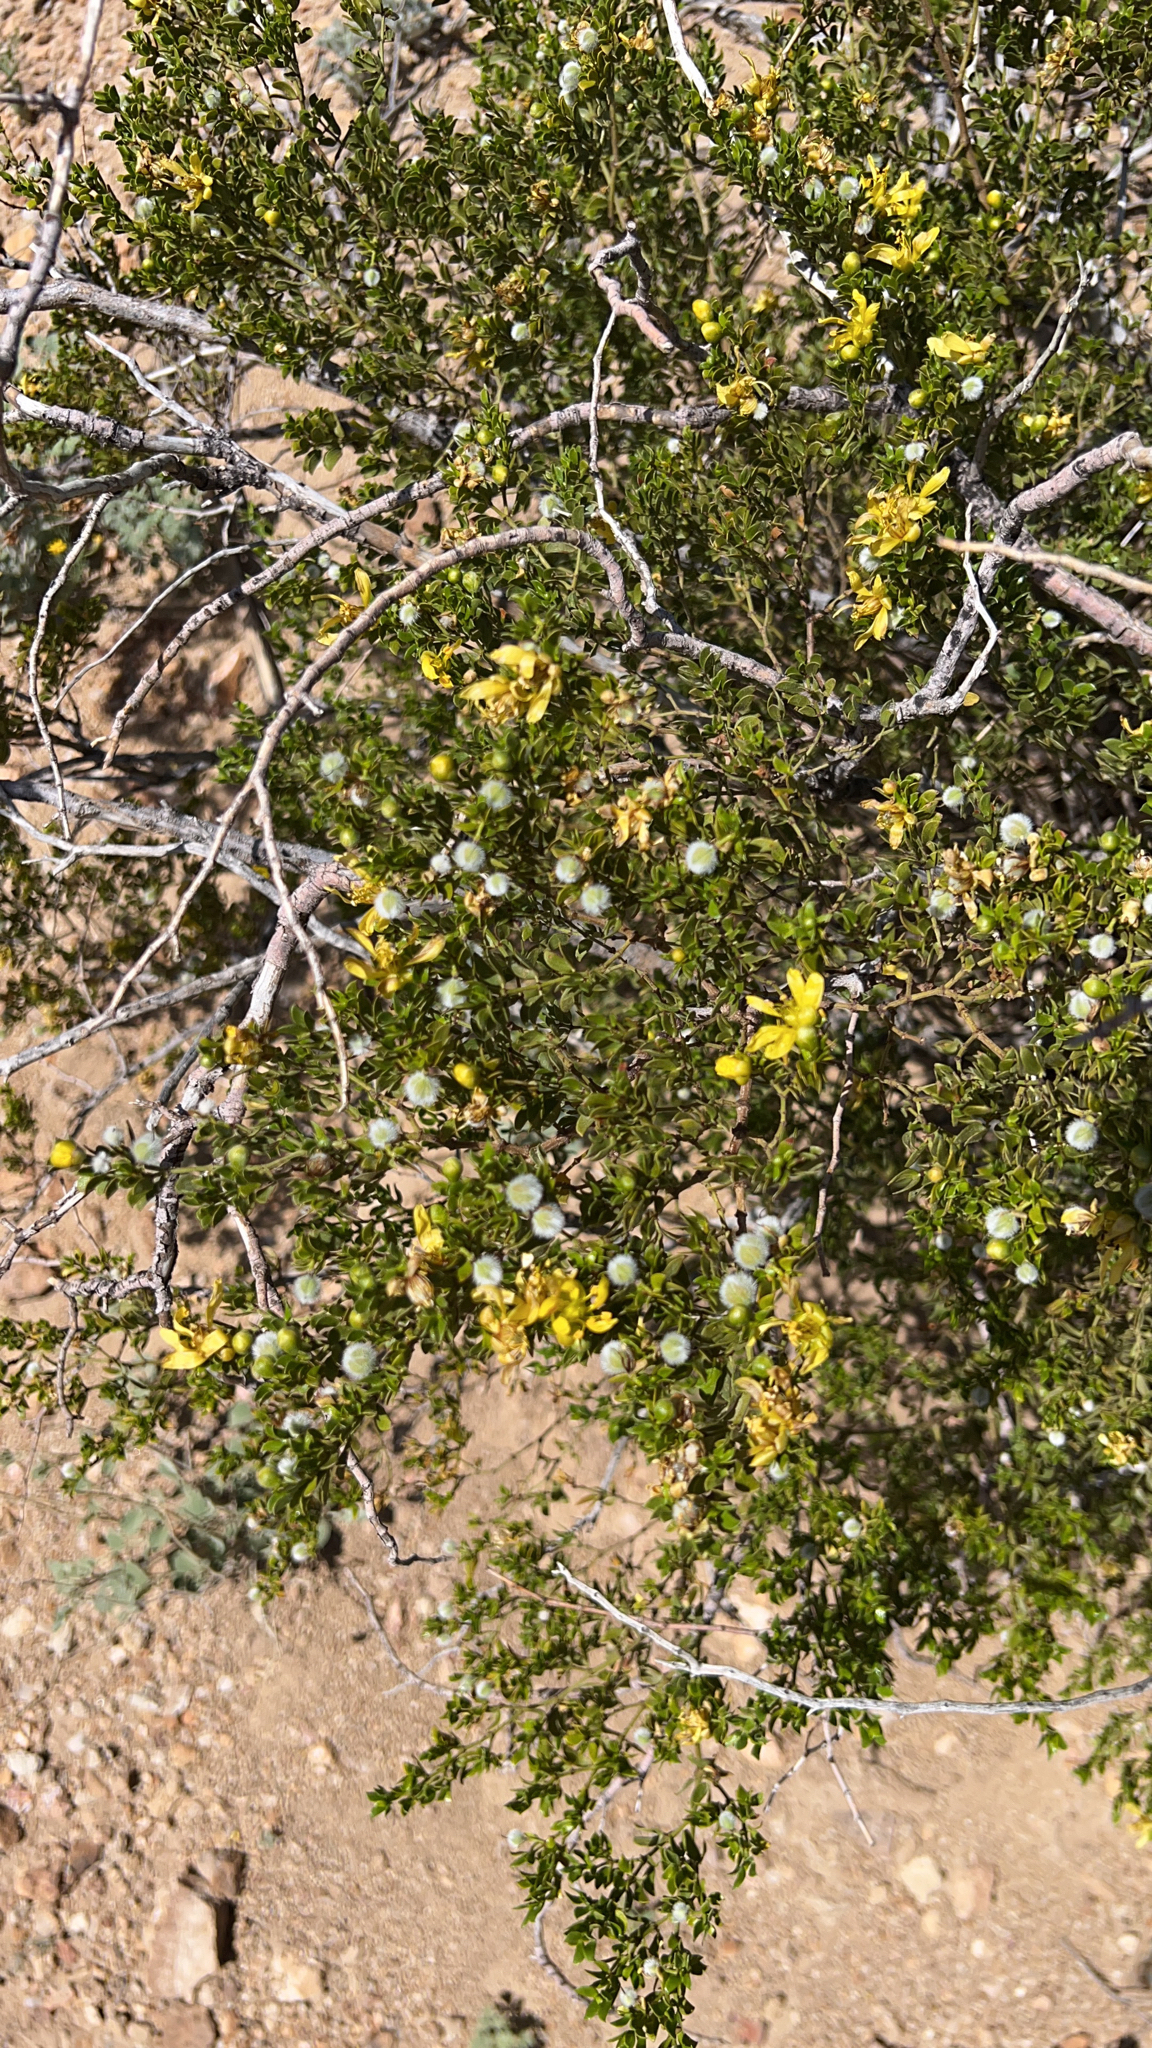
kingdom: Plantae
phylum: Tracheophyta
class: Magnoliopsida
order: Zygophyllales
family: Zygophyllaceae
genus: Larrea
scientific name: Larrea tridentata
